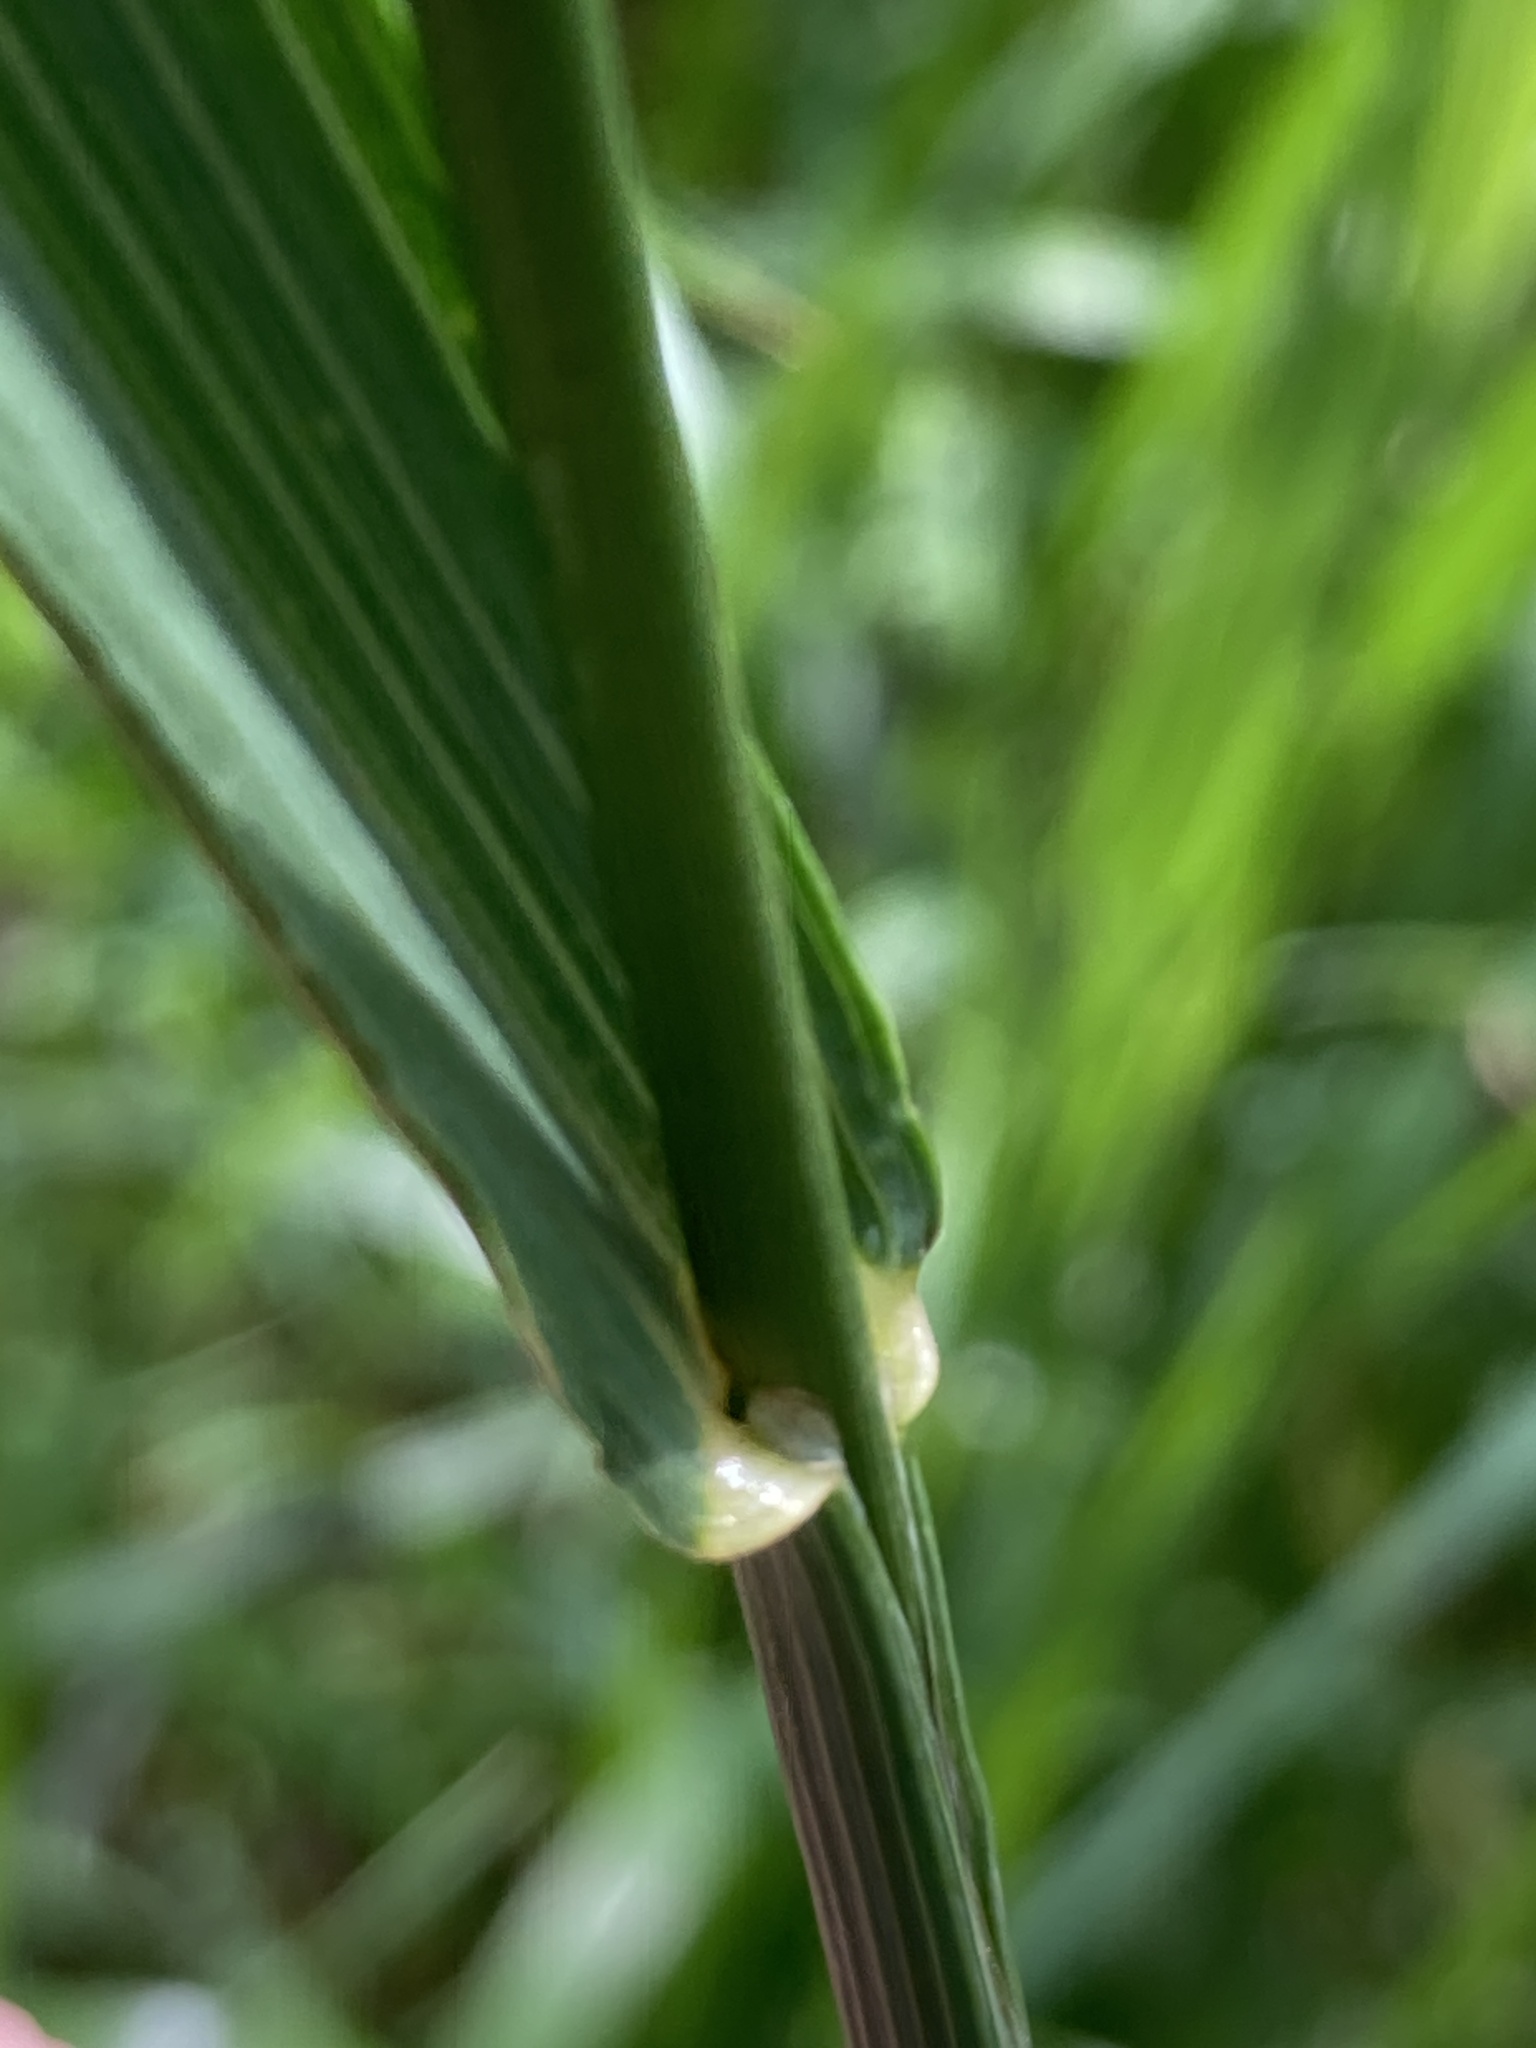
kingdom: Plantae
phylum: Tracheophyta
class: Liliopsida
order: Poales
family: Poaceae
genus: Bromus
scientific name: Bromus inermis
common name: Smooth brome
